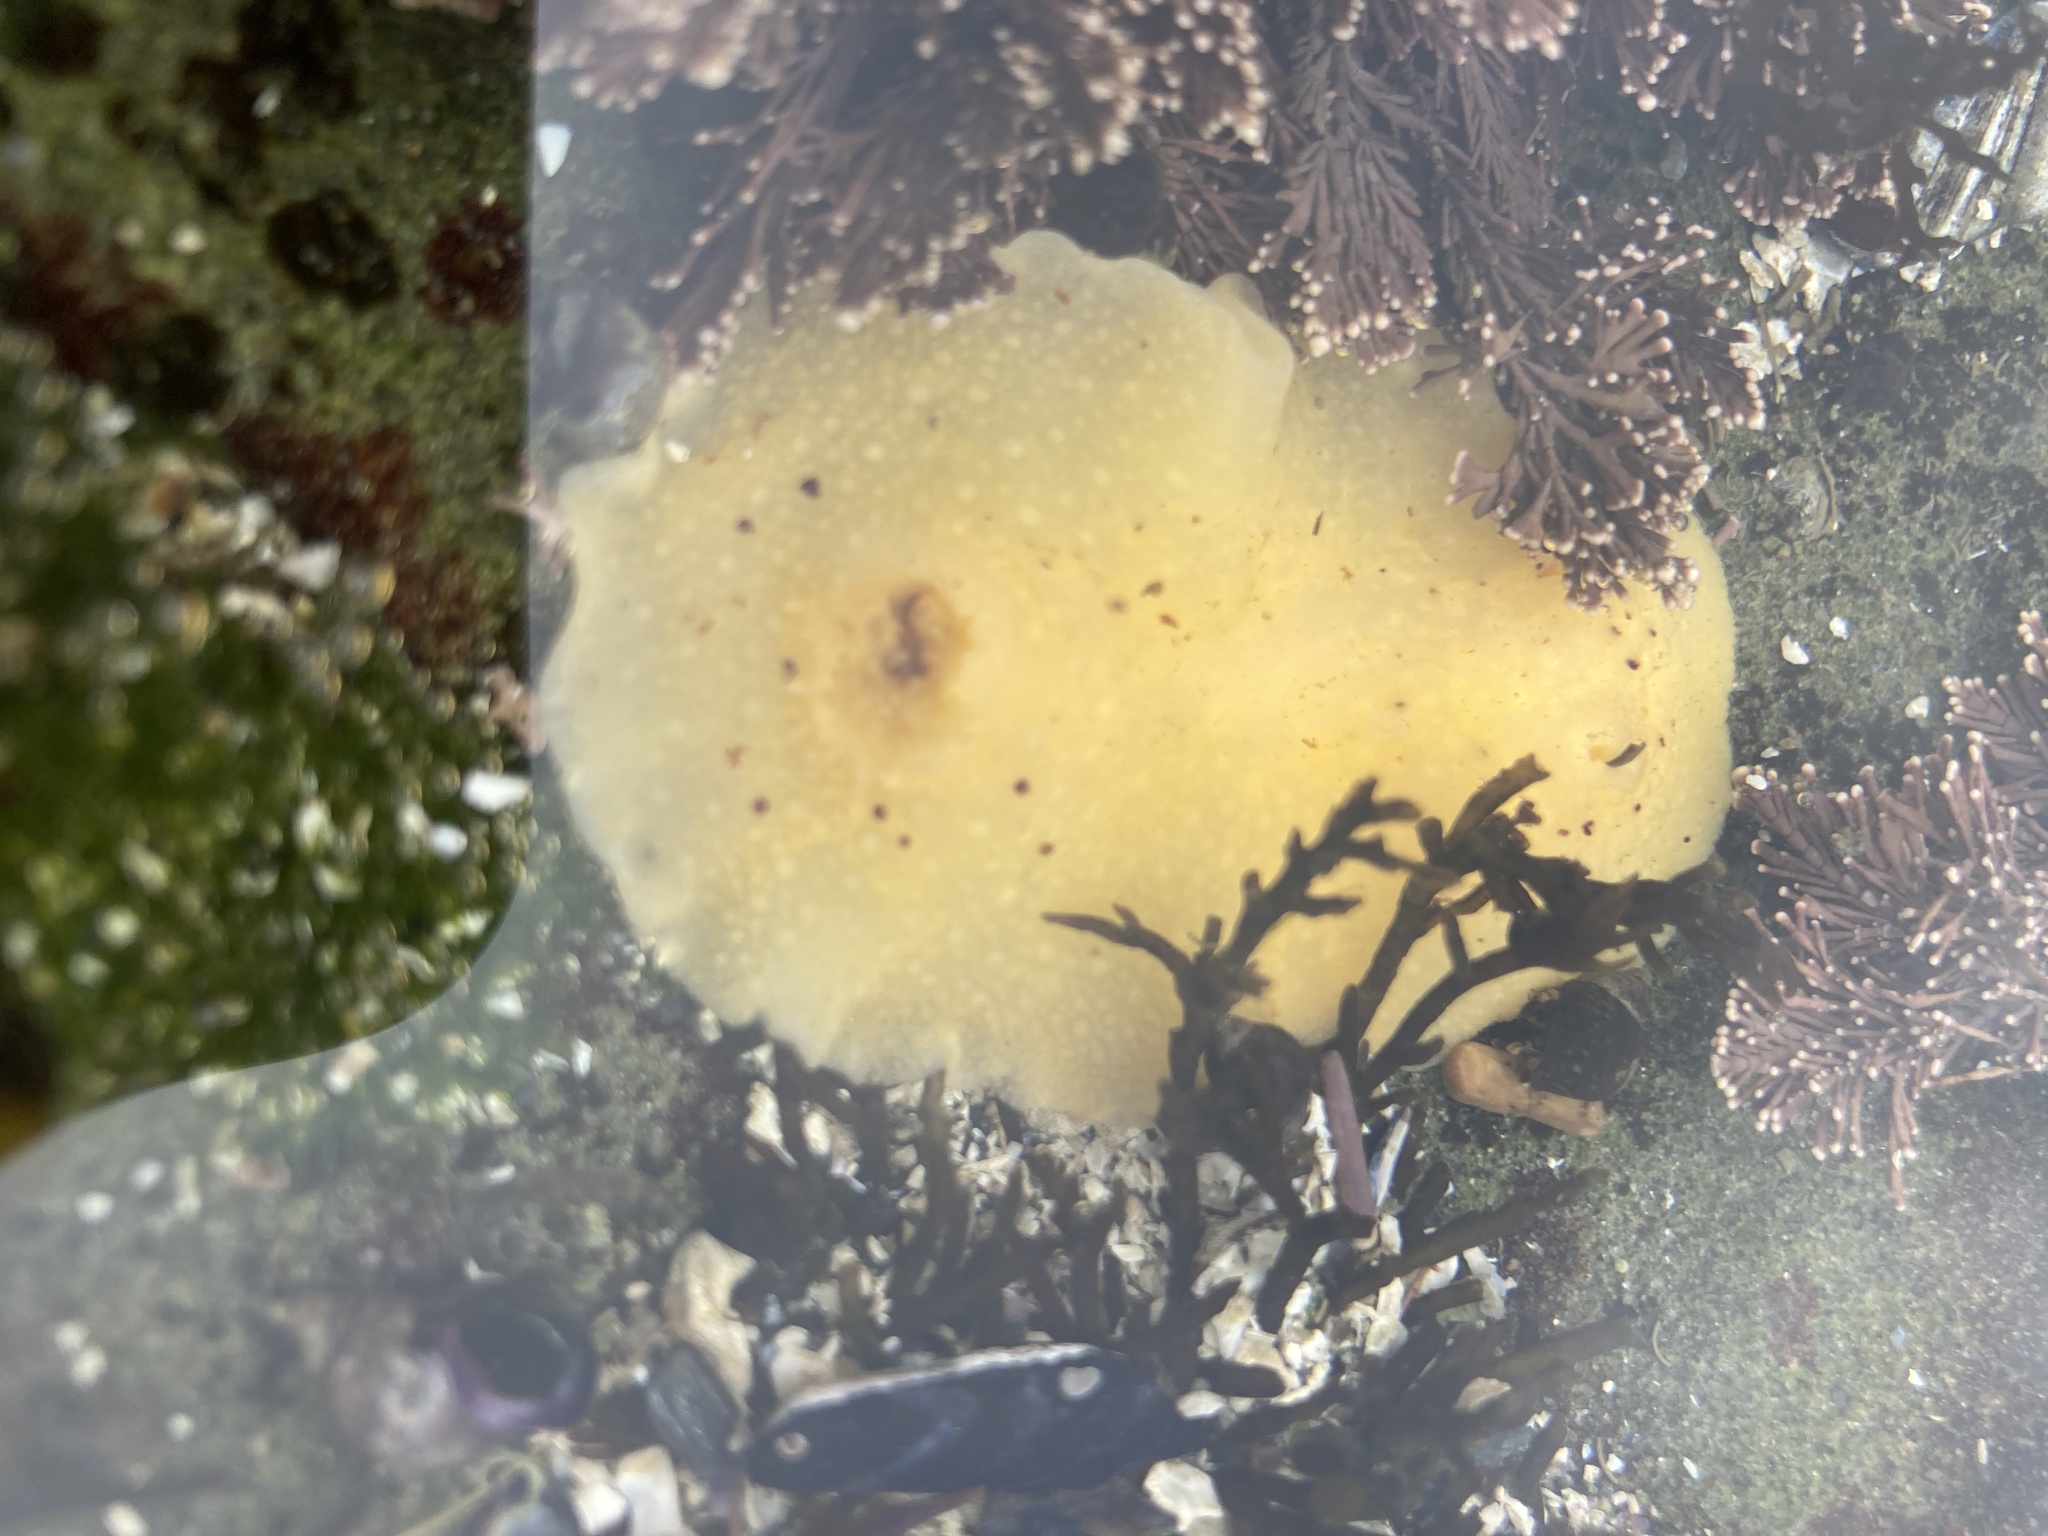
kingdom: Animalia
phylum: Mollusca
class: Gastropoda
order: Nudibranchia
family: Discodorididae
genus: Geitodoris
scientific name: Geitodoris heathi
